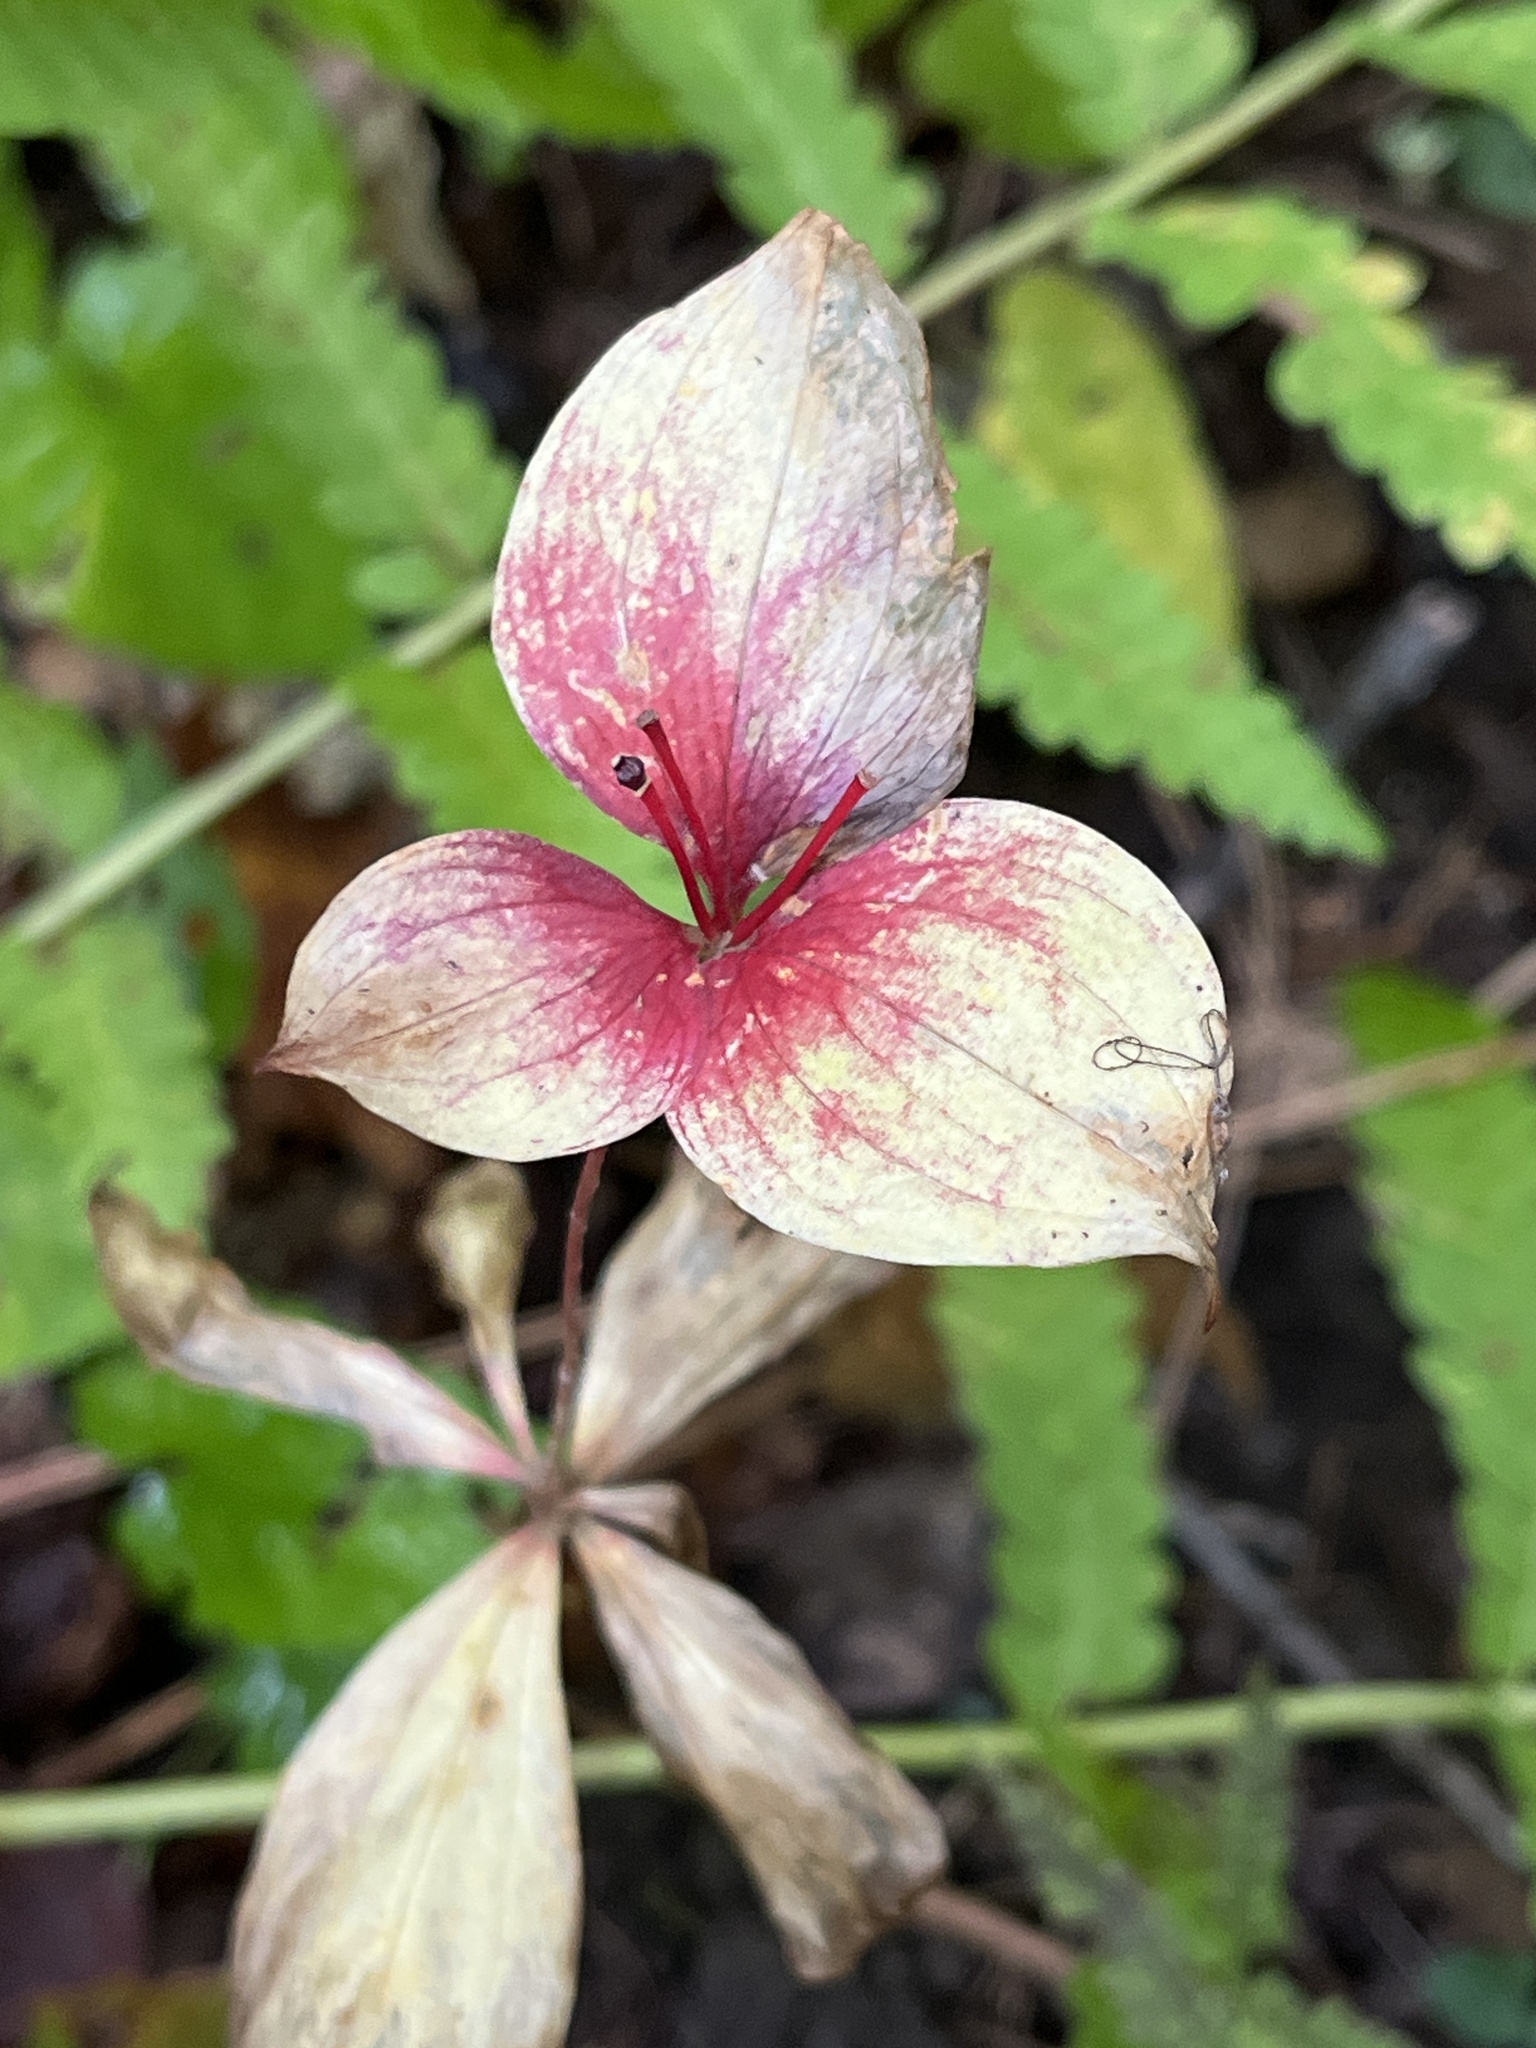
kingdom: Plantae
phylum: Tracheophyta
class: Liliopsida
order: Liliales
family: Liliaceae
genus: Medeola
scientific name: Medeola virginiana
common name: Indian cucumber-root
